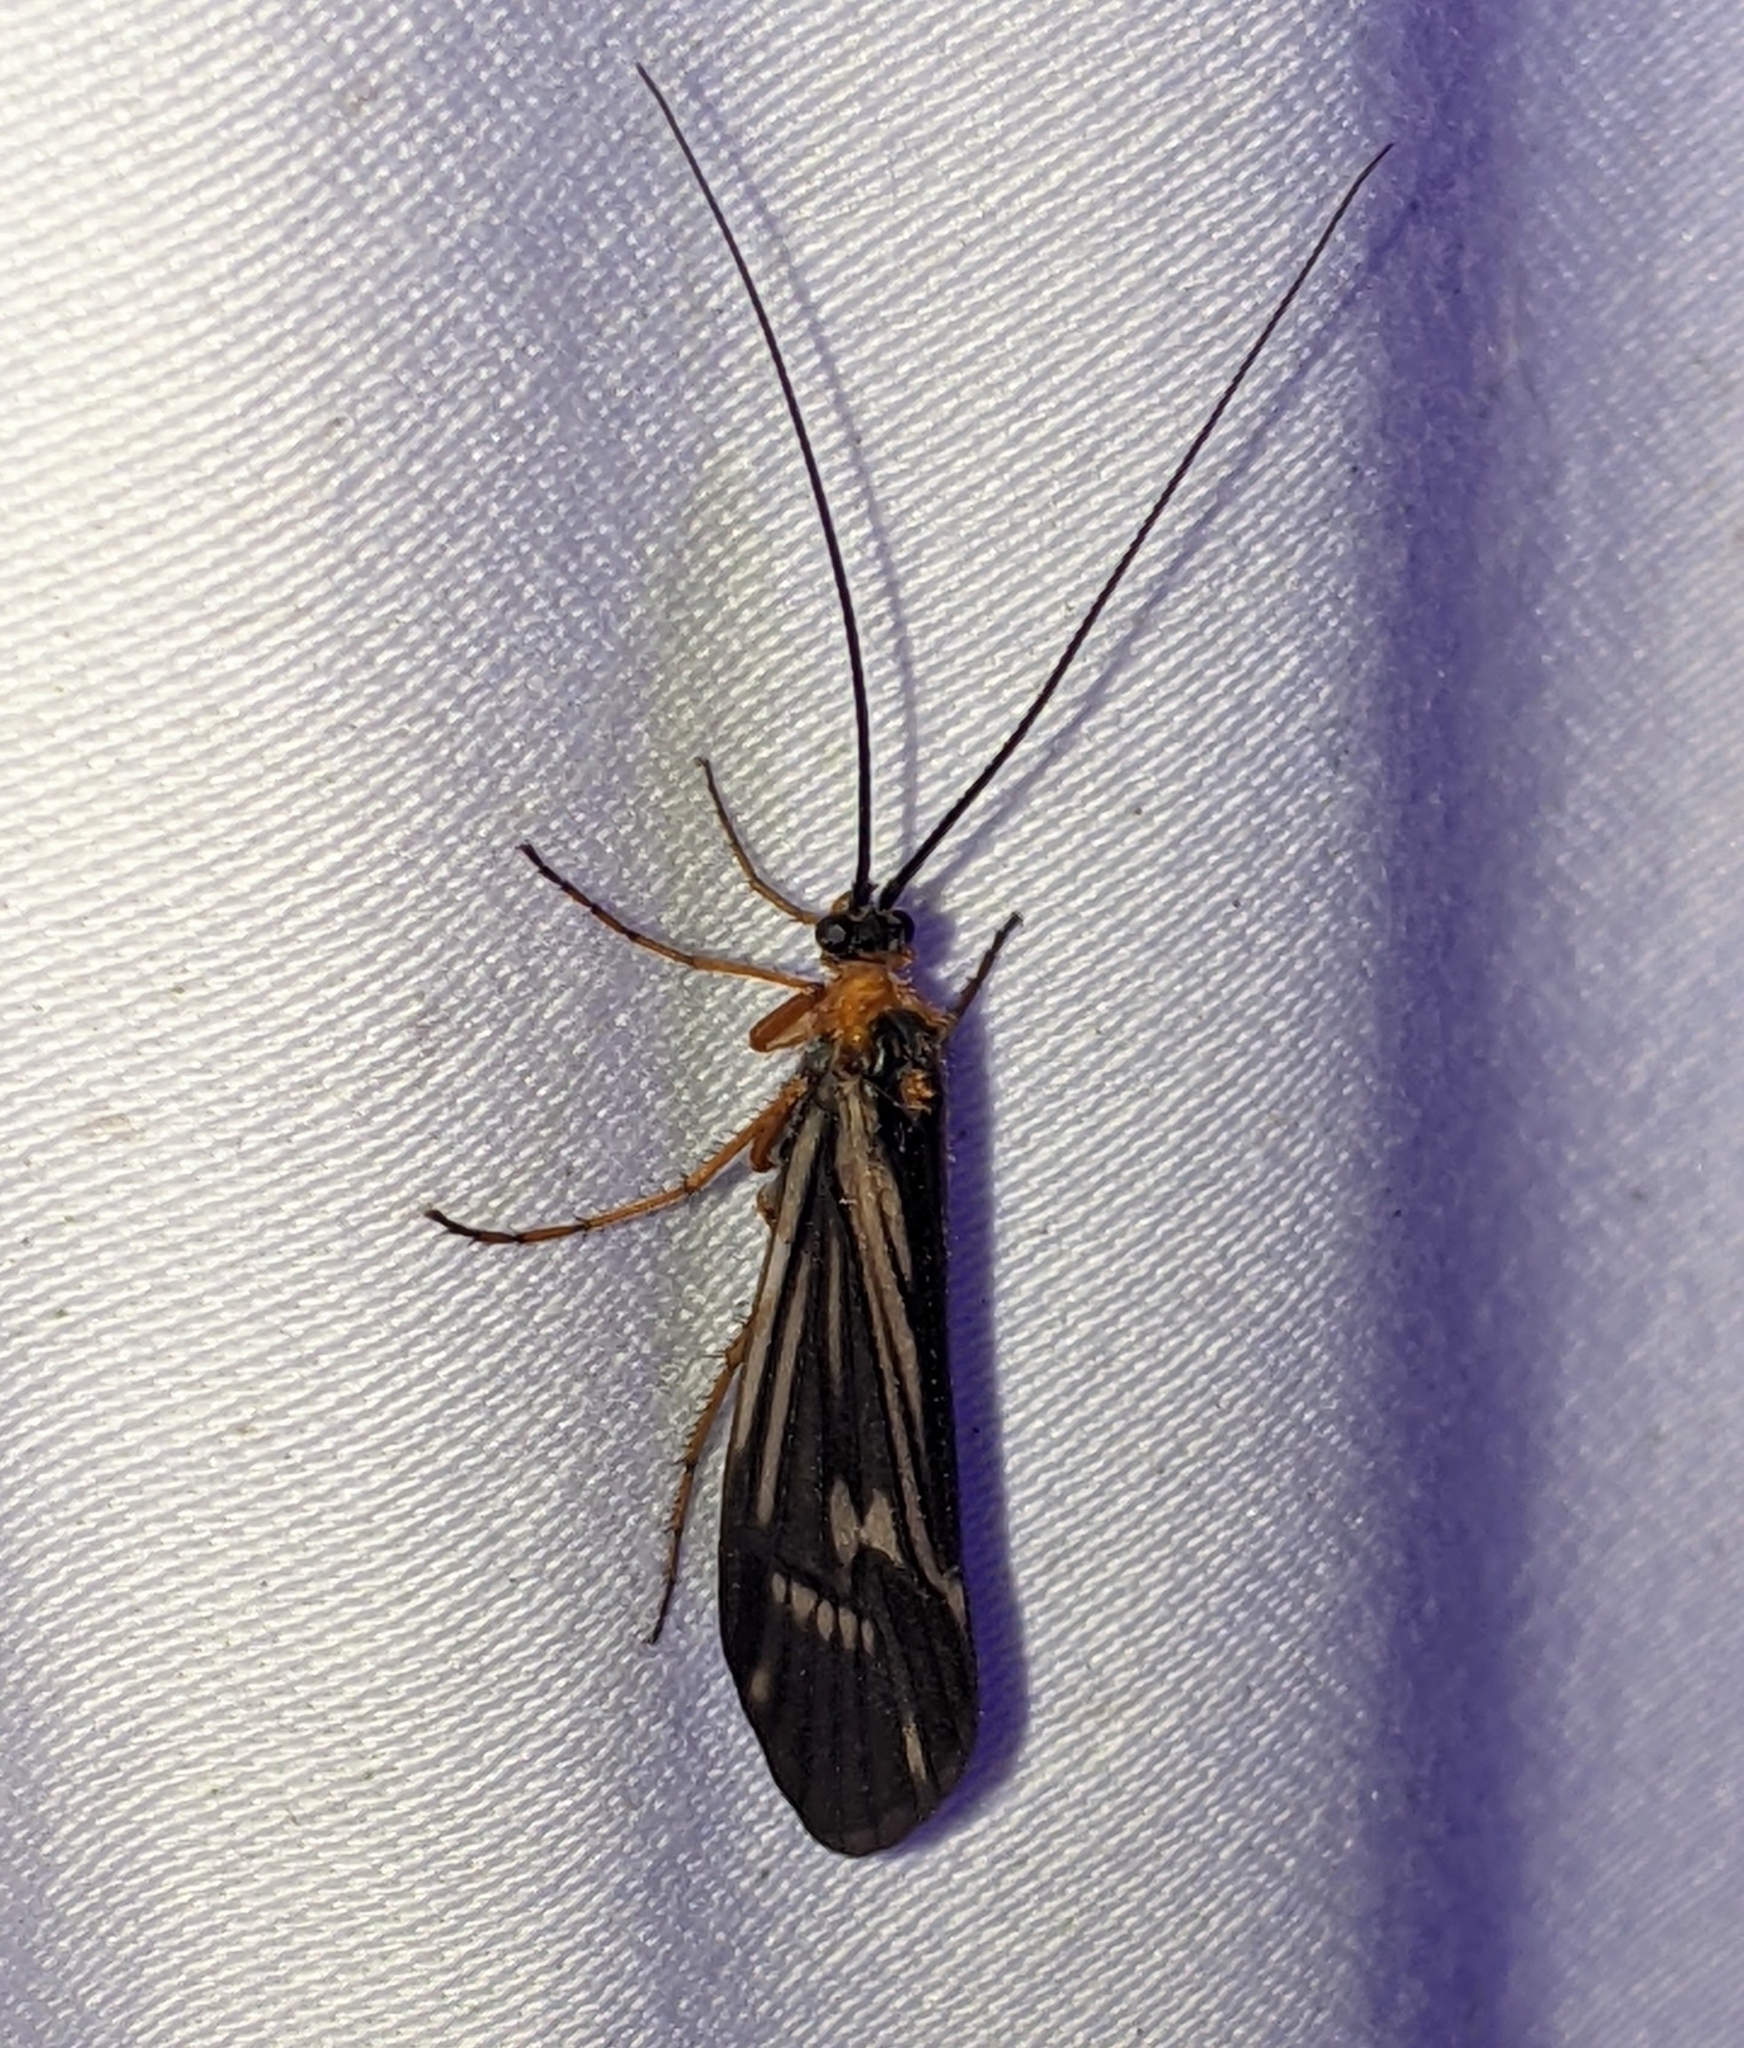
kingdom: Animalia
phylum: Arthropoda
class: Insecta
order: Trichoptera
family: Limnephilidae
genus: Halesochila
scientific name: Halesochila taylori
